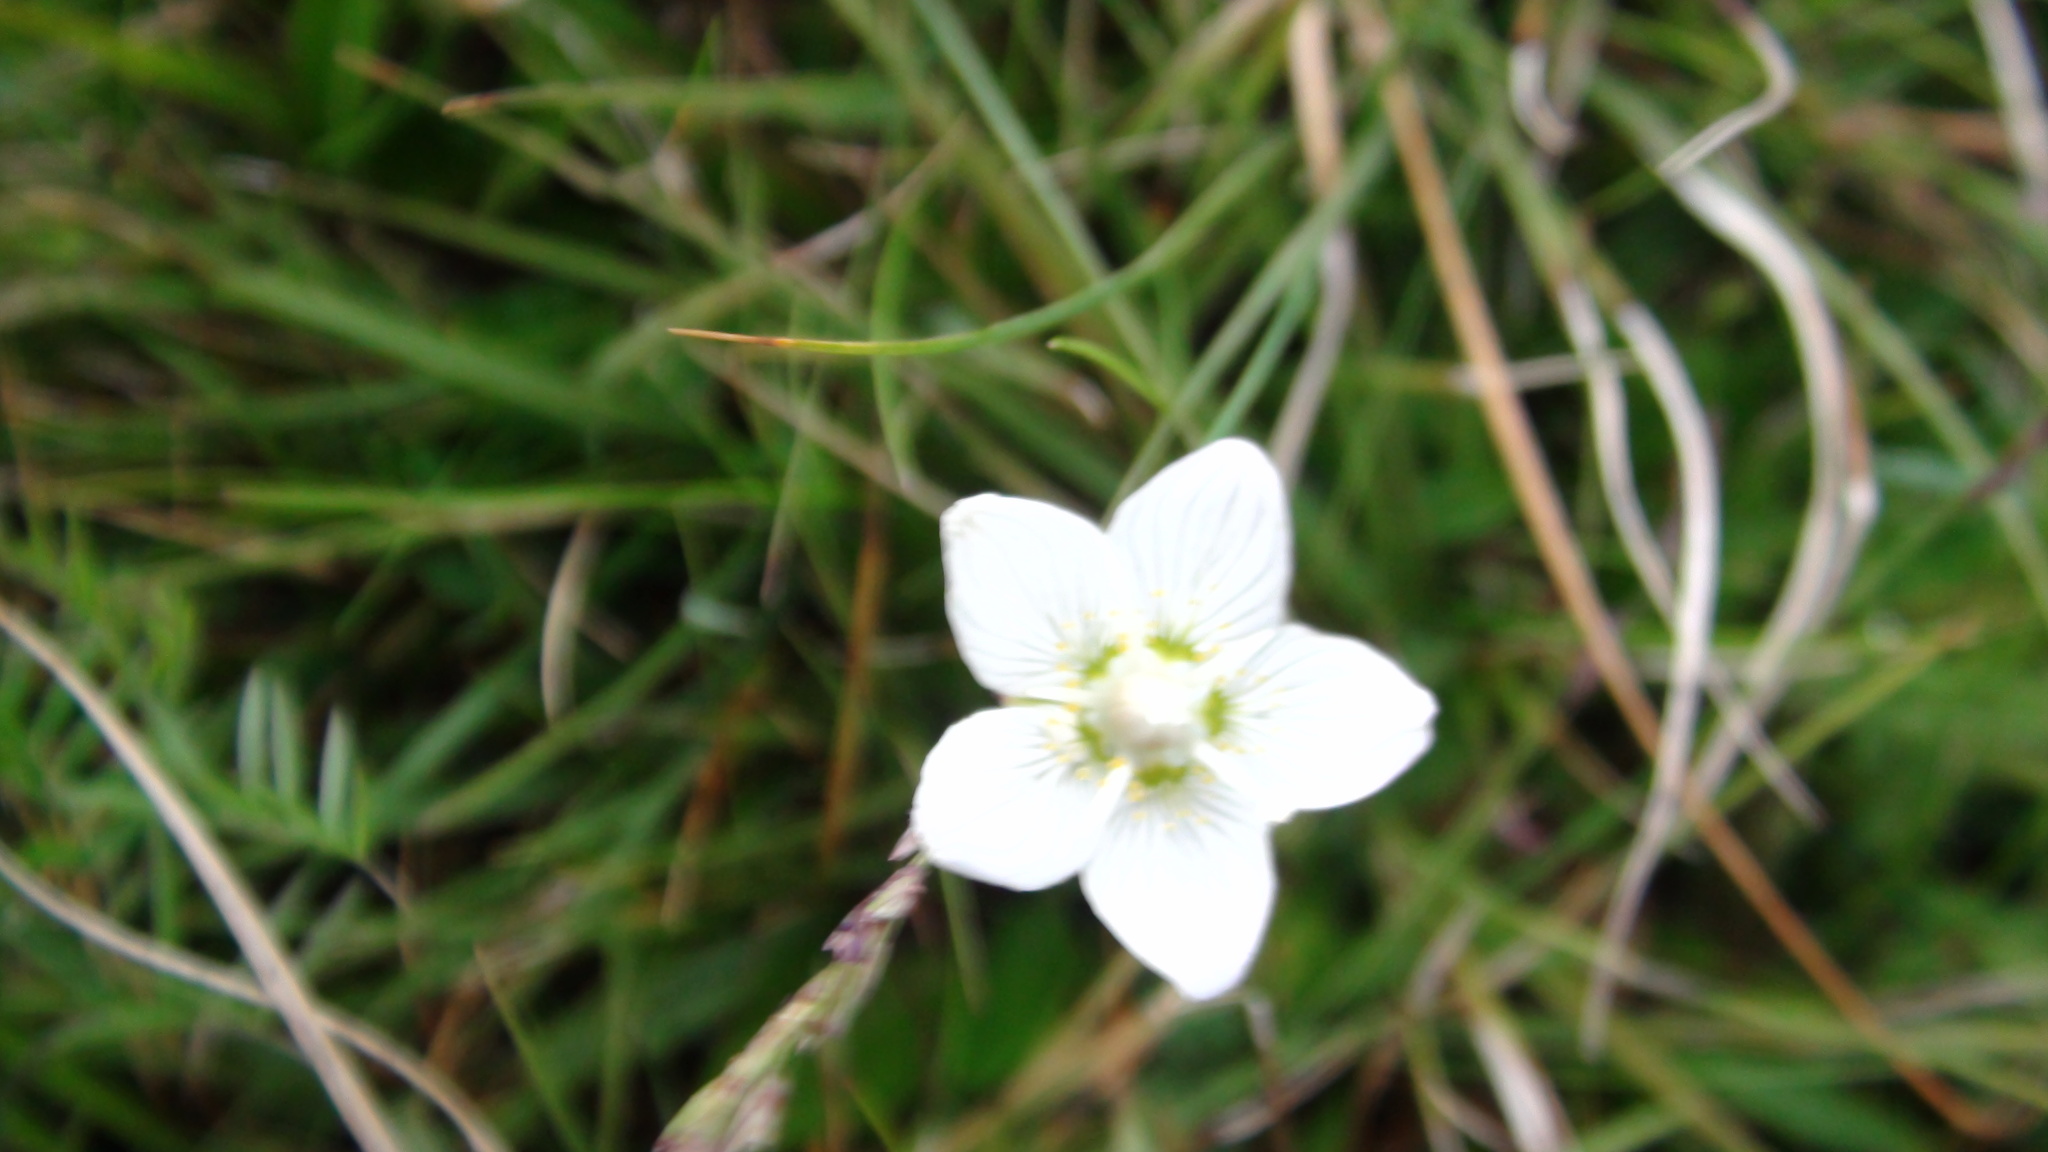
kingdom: Plantae
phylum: Tracheophyta
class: Magnoliopsida
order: Celastrales
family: Parnassiaceae
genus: Parnassia
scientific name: Parnassia palustris
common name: Grass-of-parnassus
